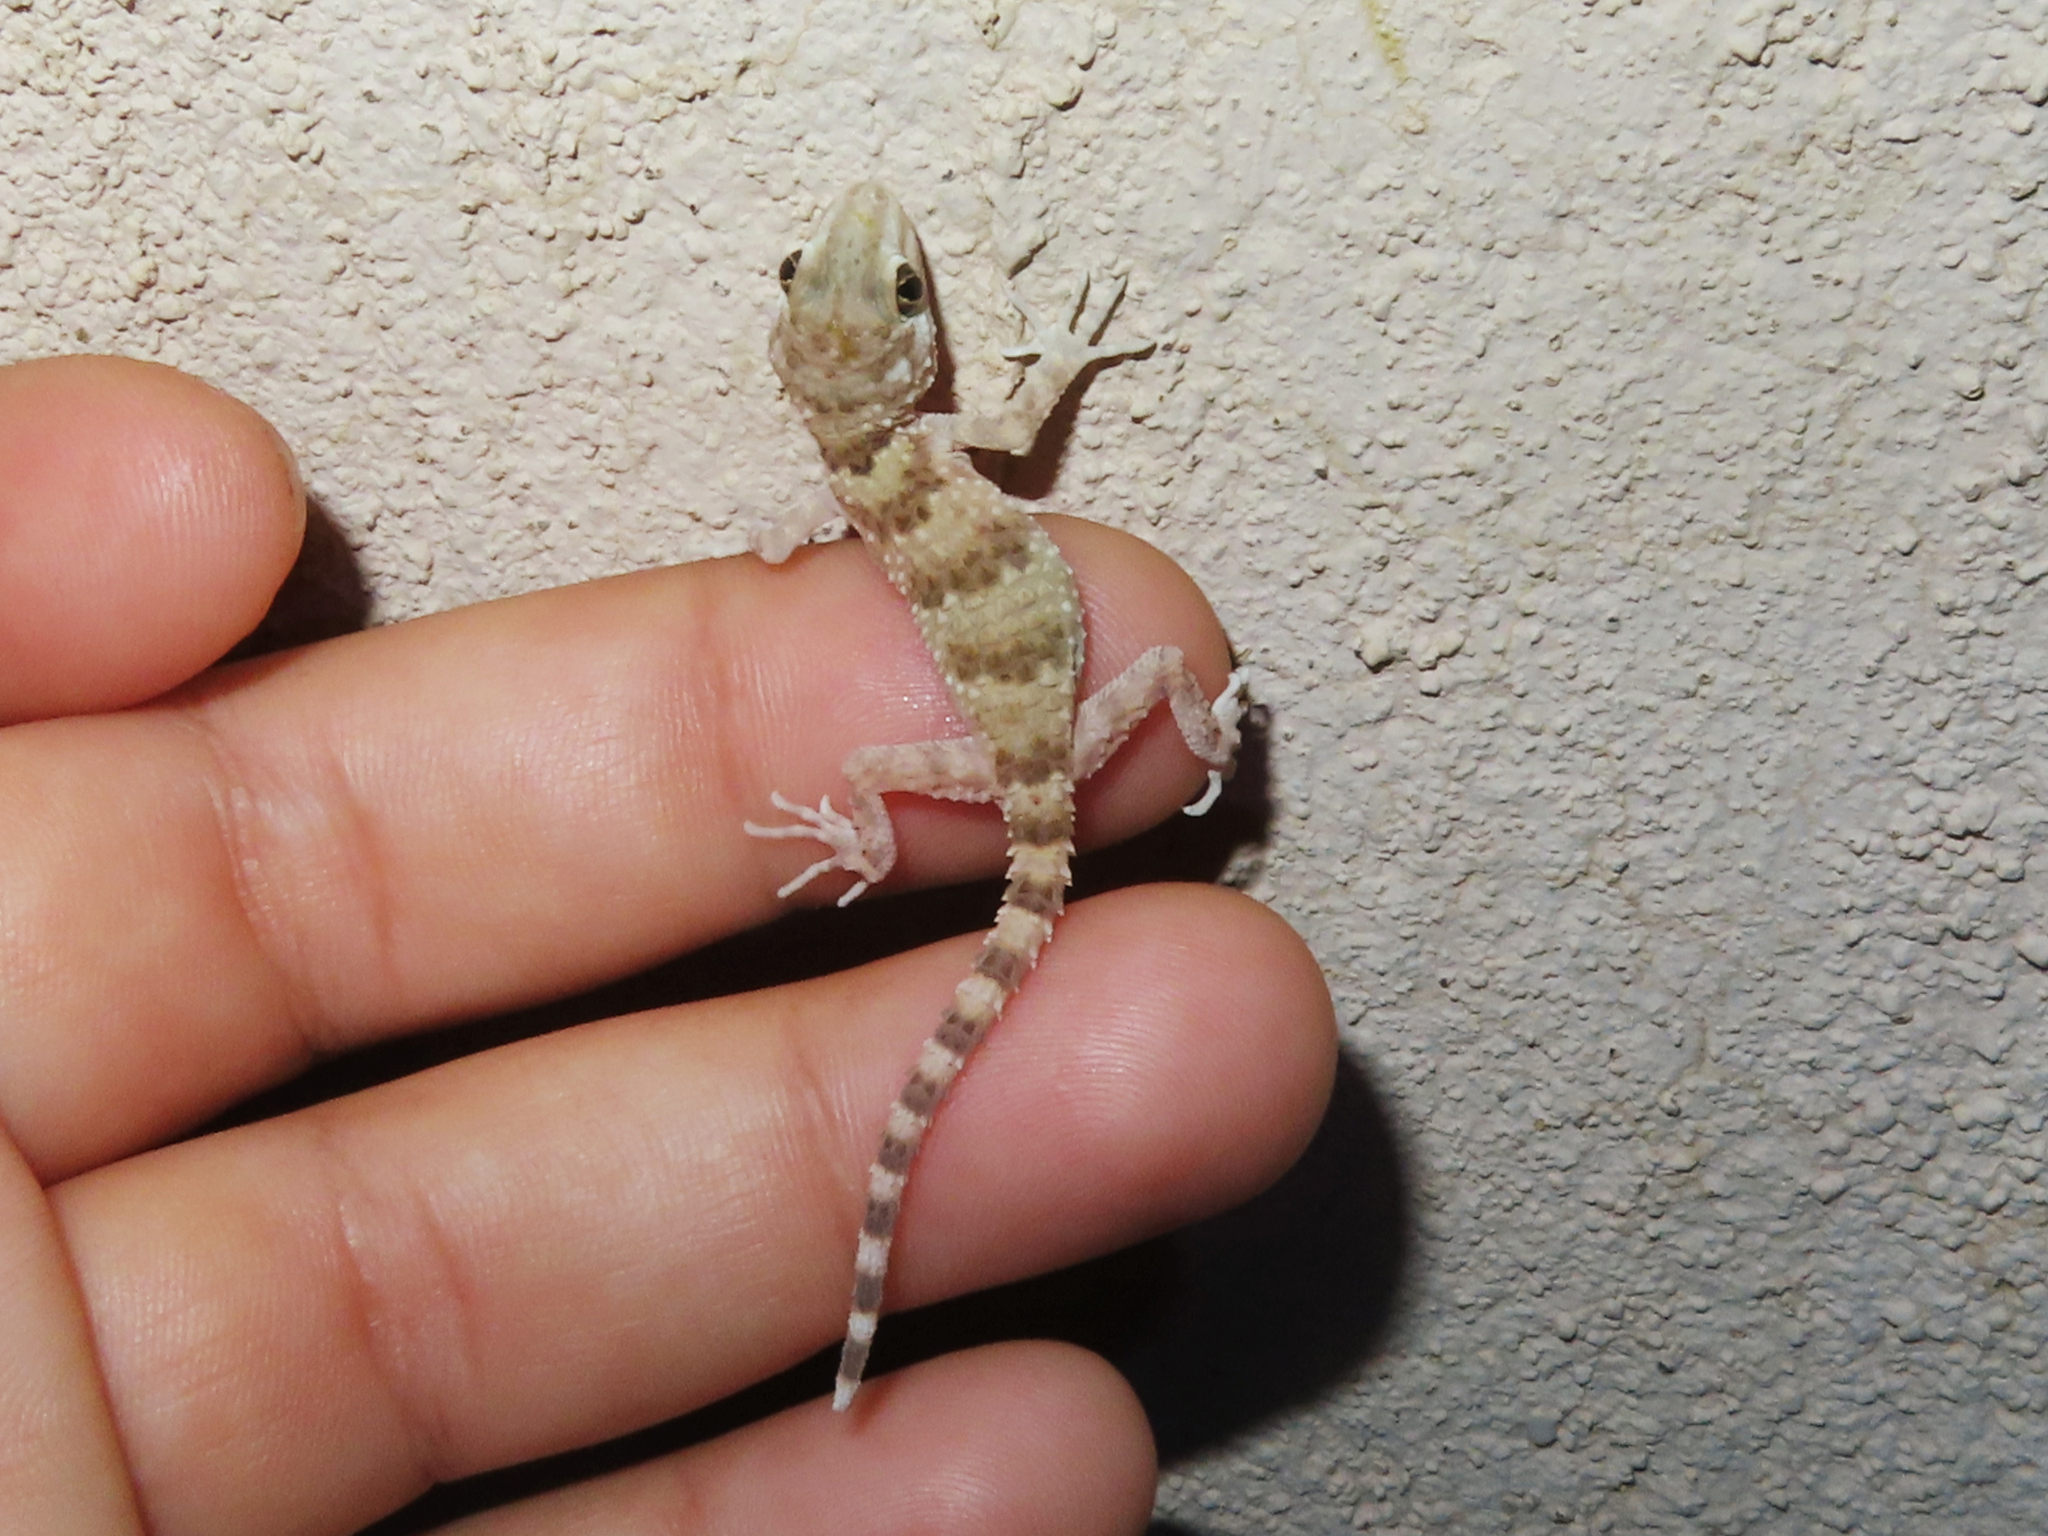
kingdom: Animalia
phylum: Chordata
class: Squamata
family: Gekkonidae
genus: Tenuidactylus
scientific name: Tenuidactylus caspius
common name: Caspian bent-toed gecko
